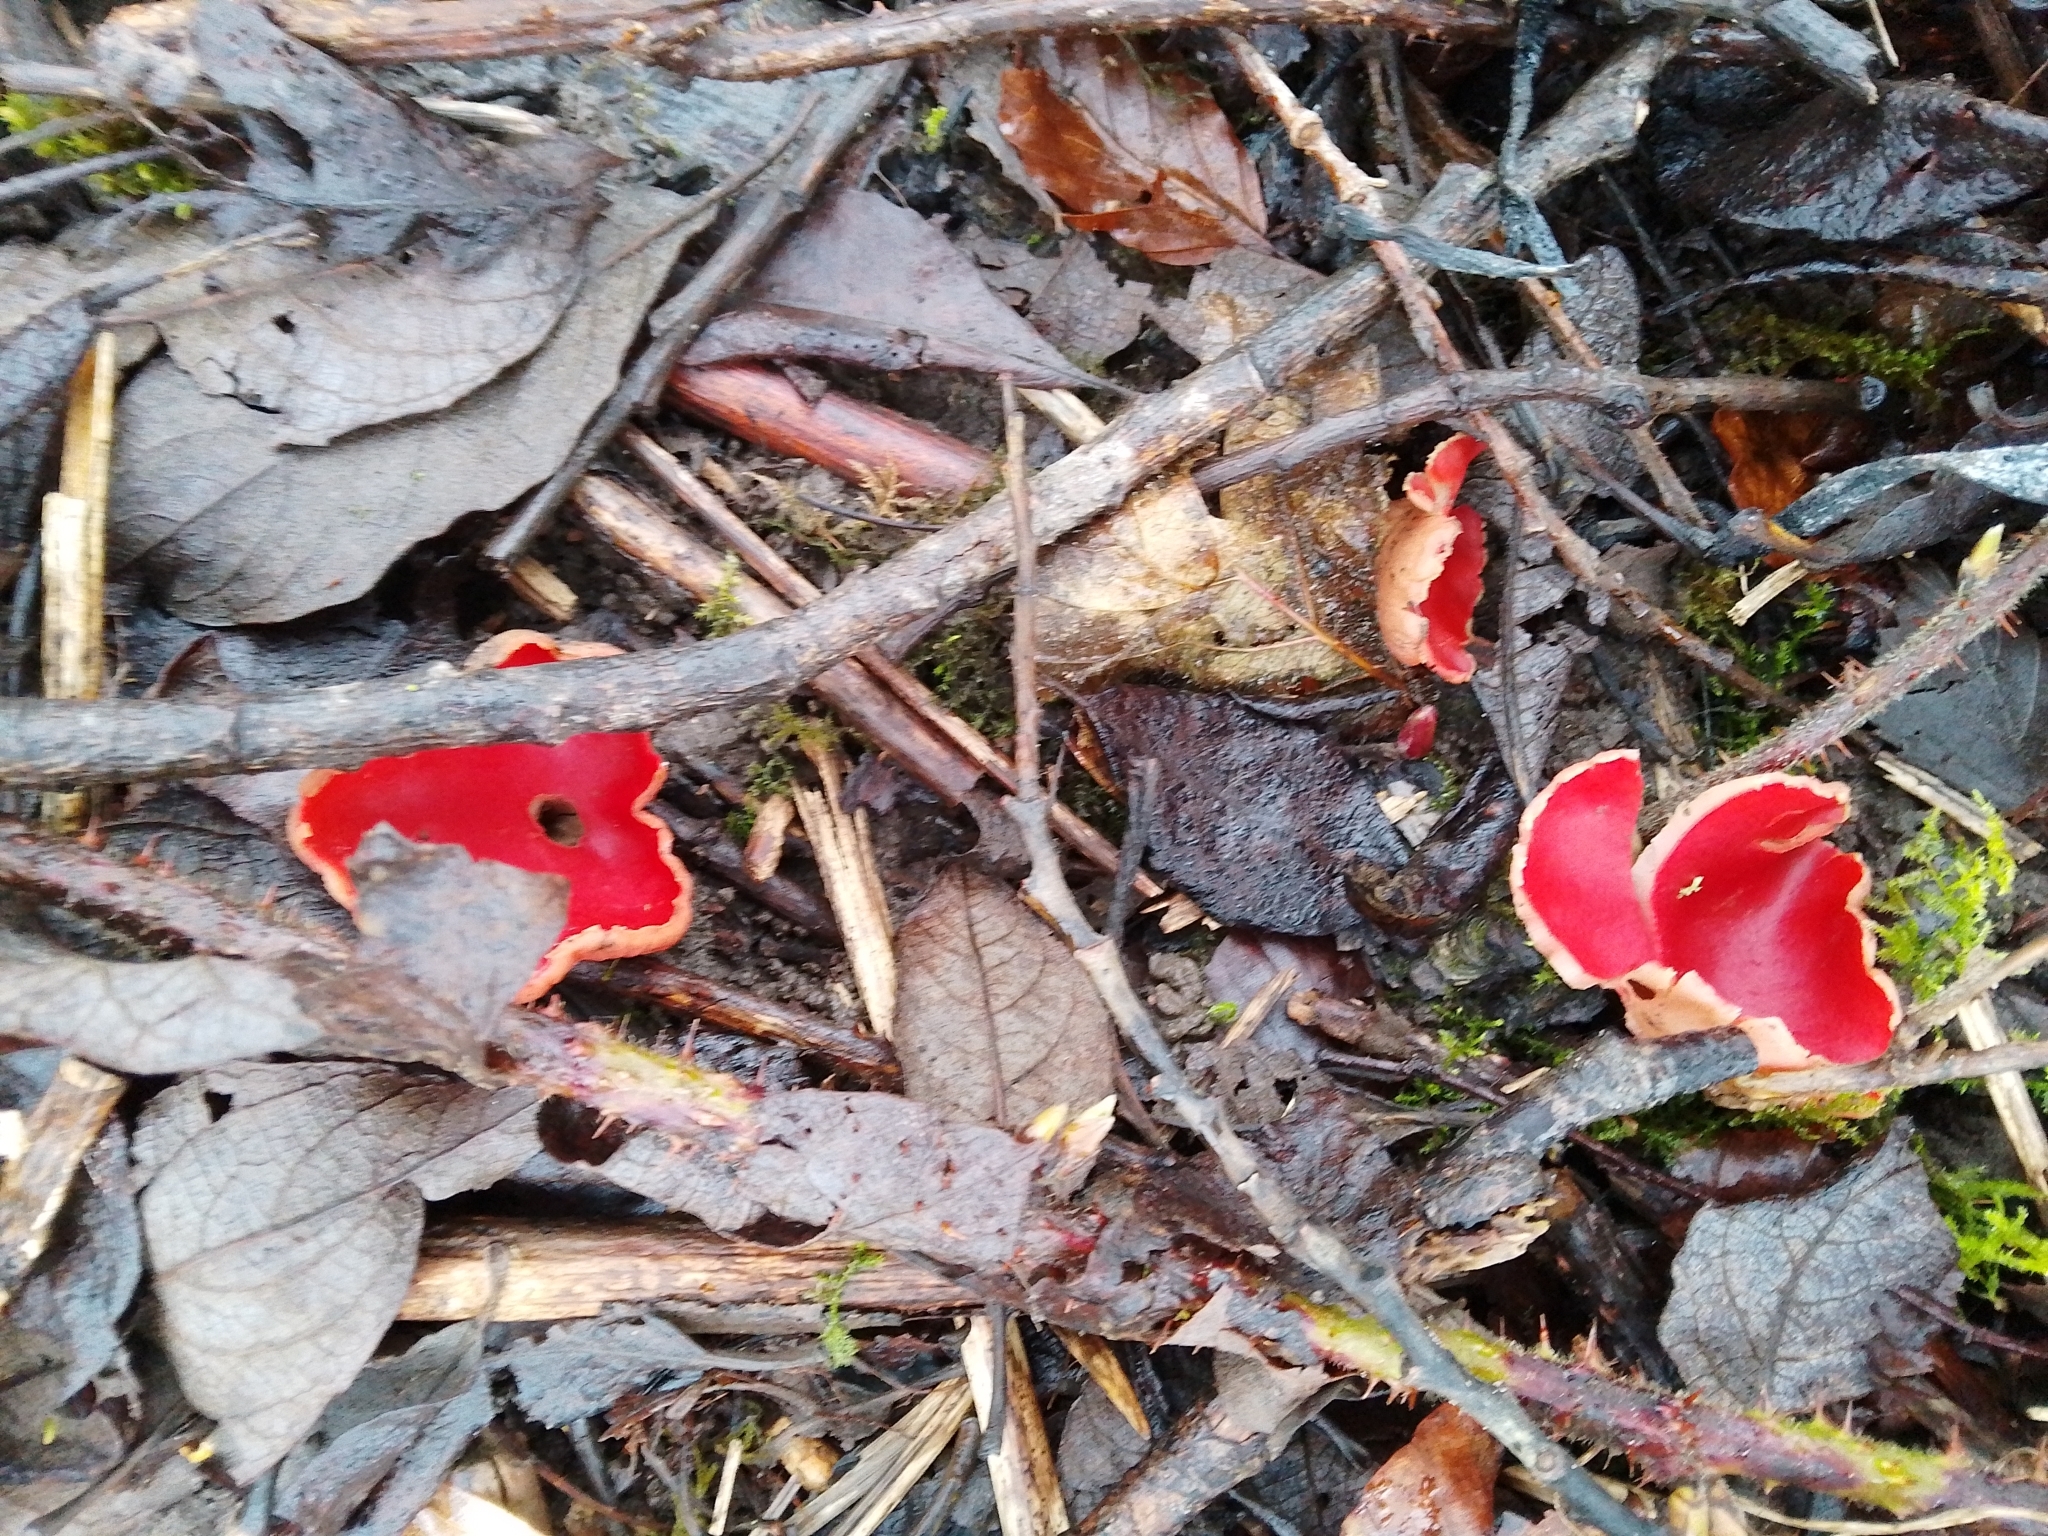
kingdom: Fungi
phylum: Ascomycota
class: Pezizomycetes
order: Pezizales
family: Sarcoscyphaceae
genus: Sarcoscypha
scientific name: Sarcoscypha
